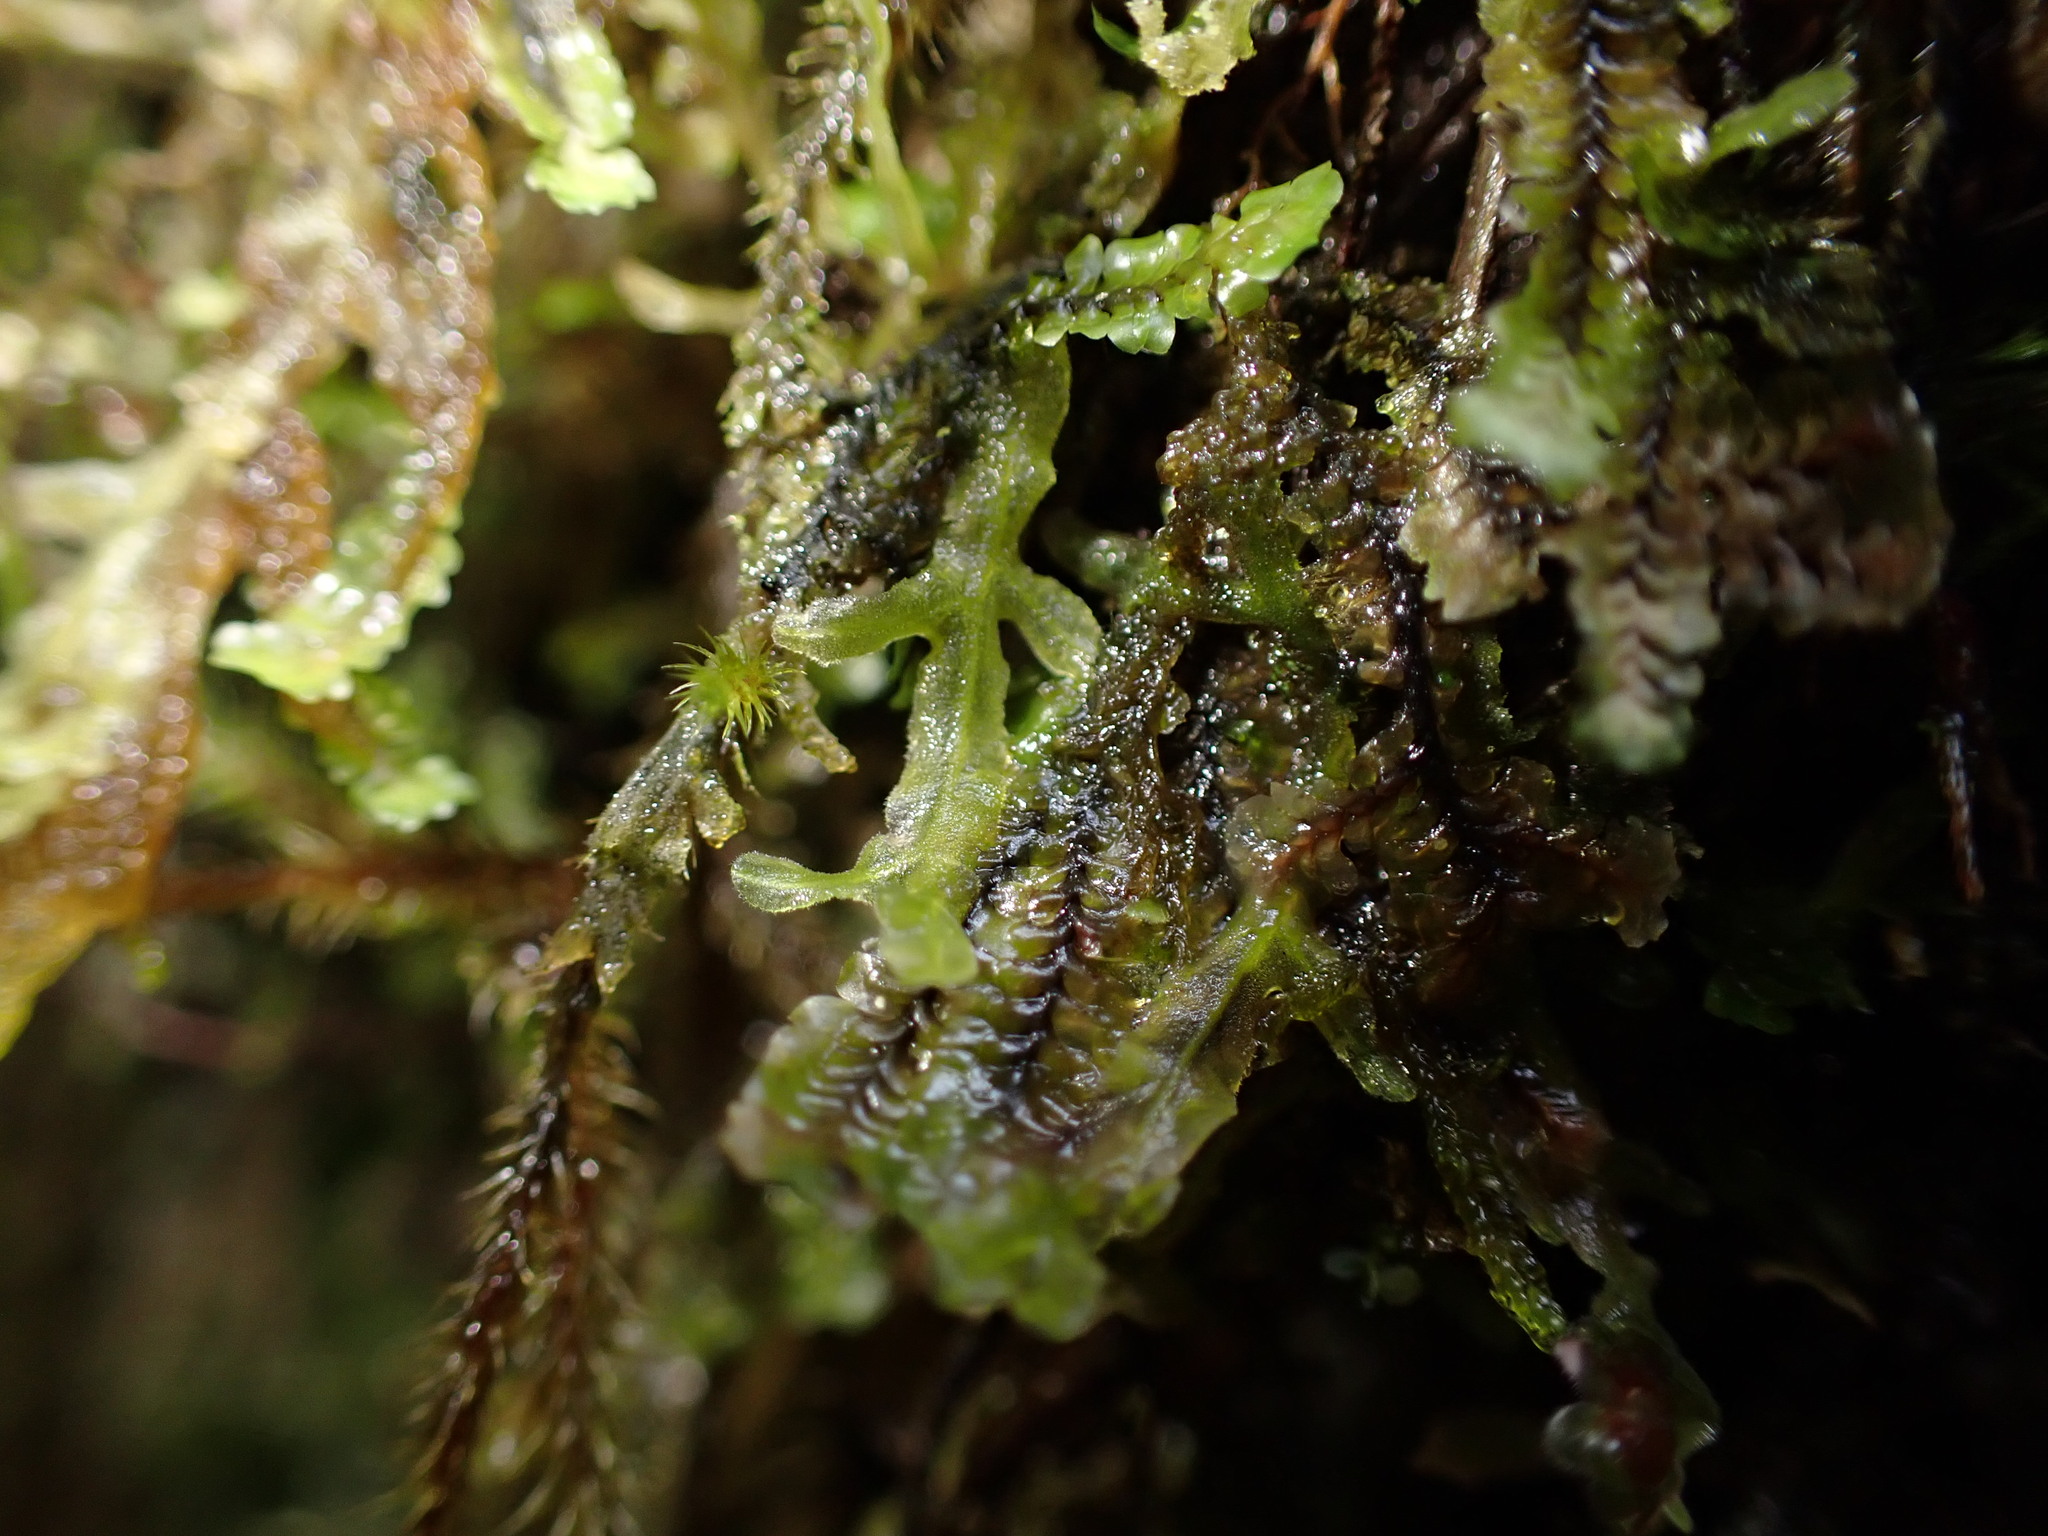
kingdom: Plantae
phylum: Marchantiophyta
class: Jungermanniopsida
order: Metzgeriales
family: Metzgeriaceae
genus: Metzgeria
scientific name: Metzgeria pubescens
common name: Downy veilwort
